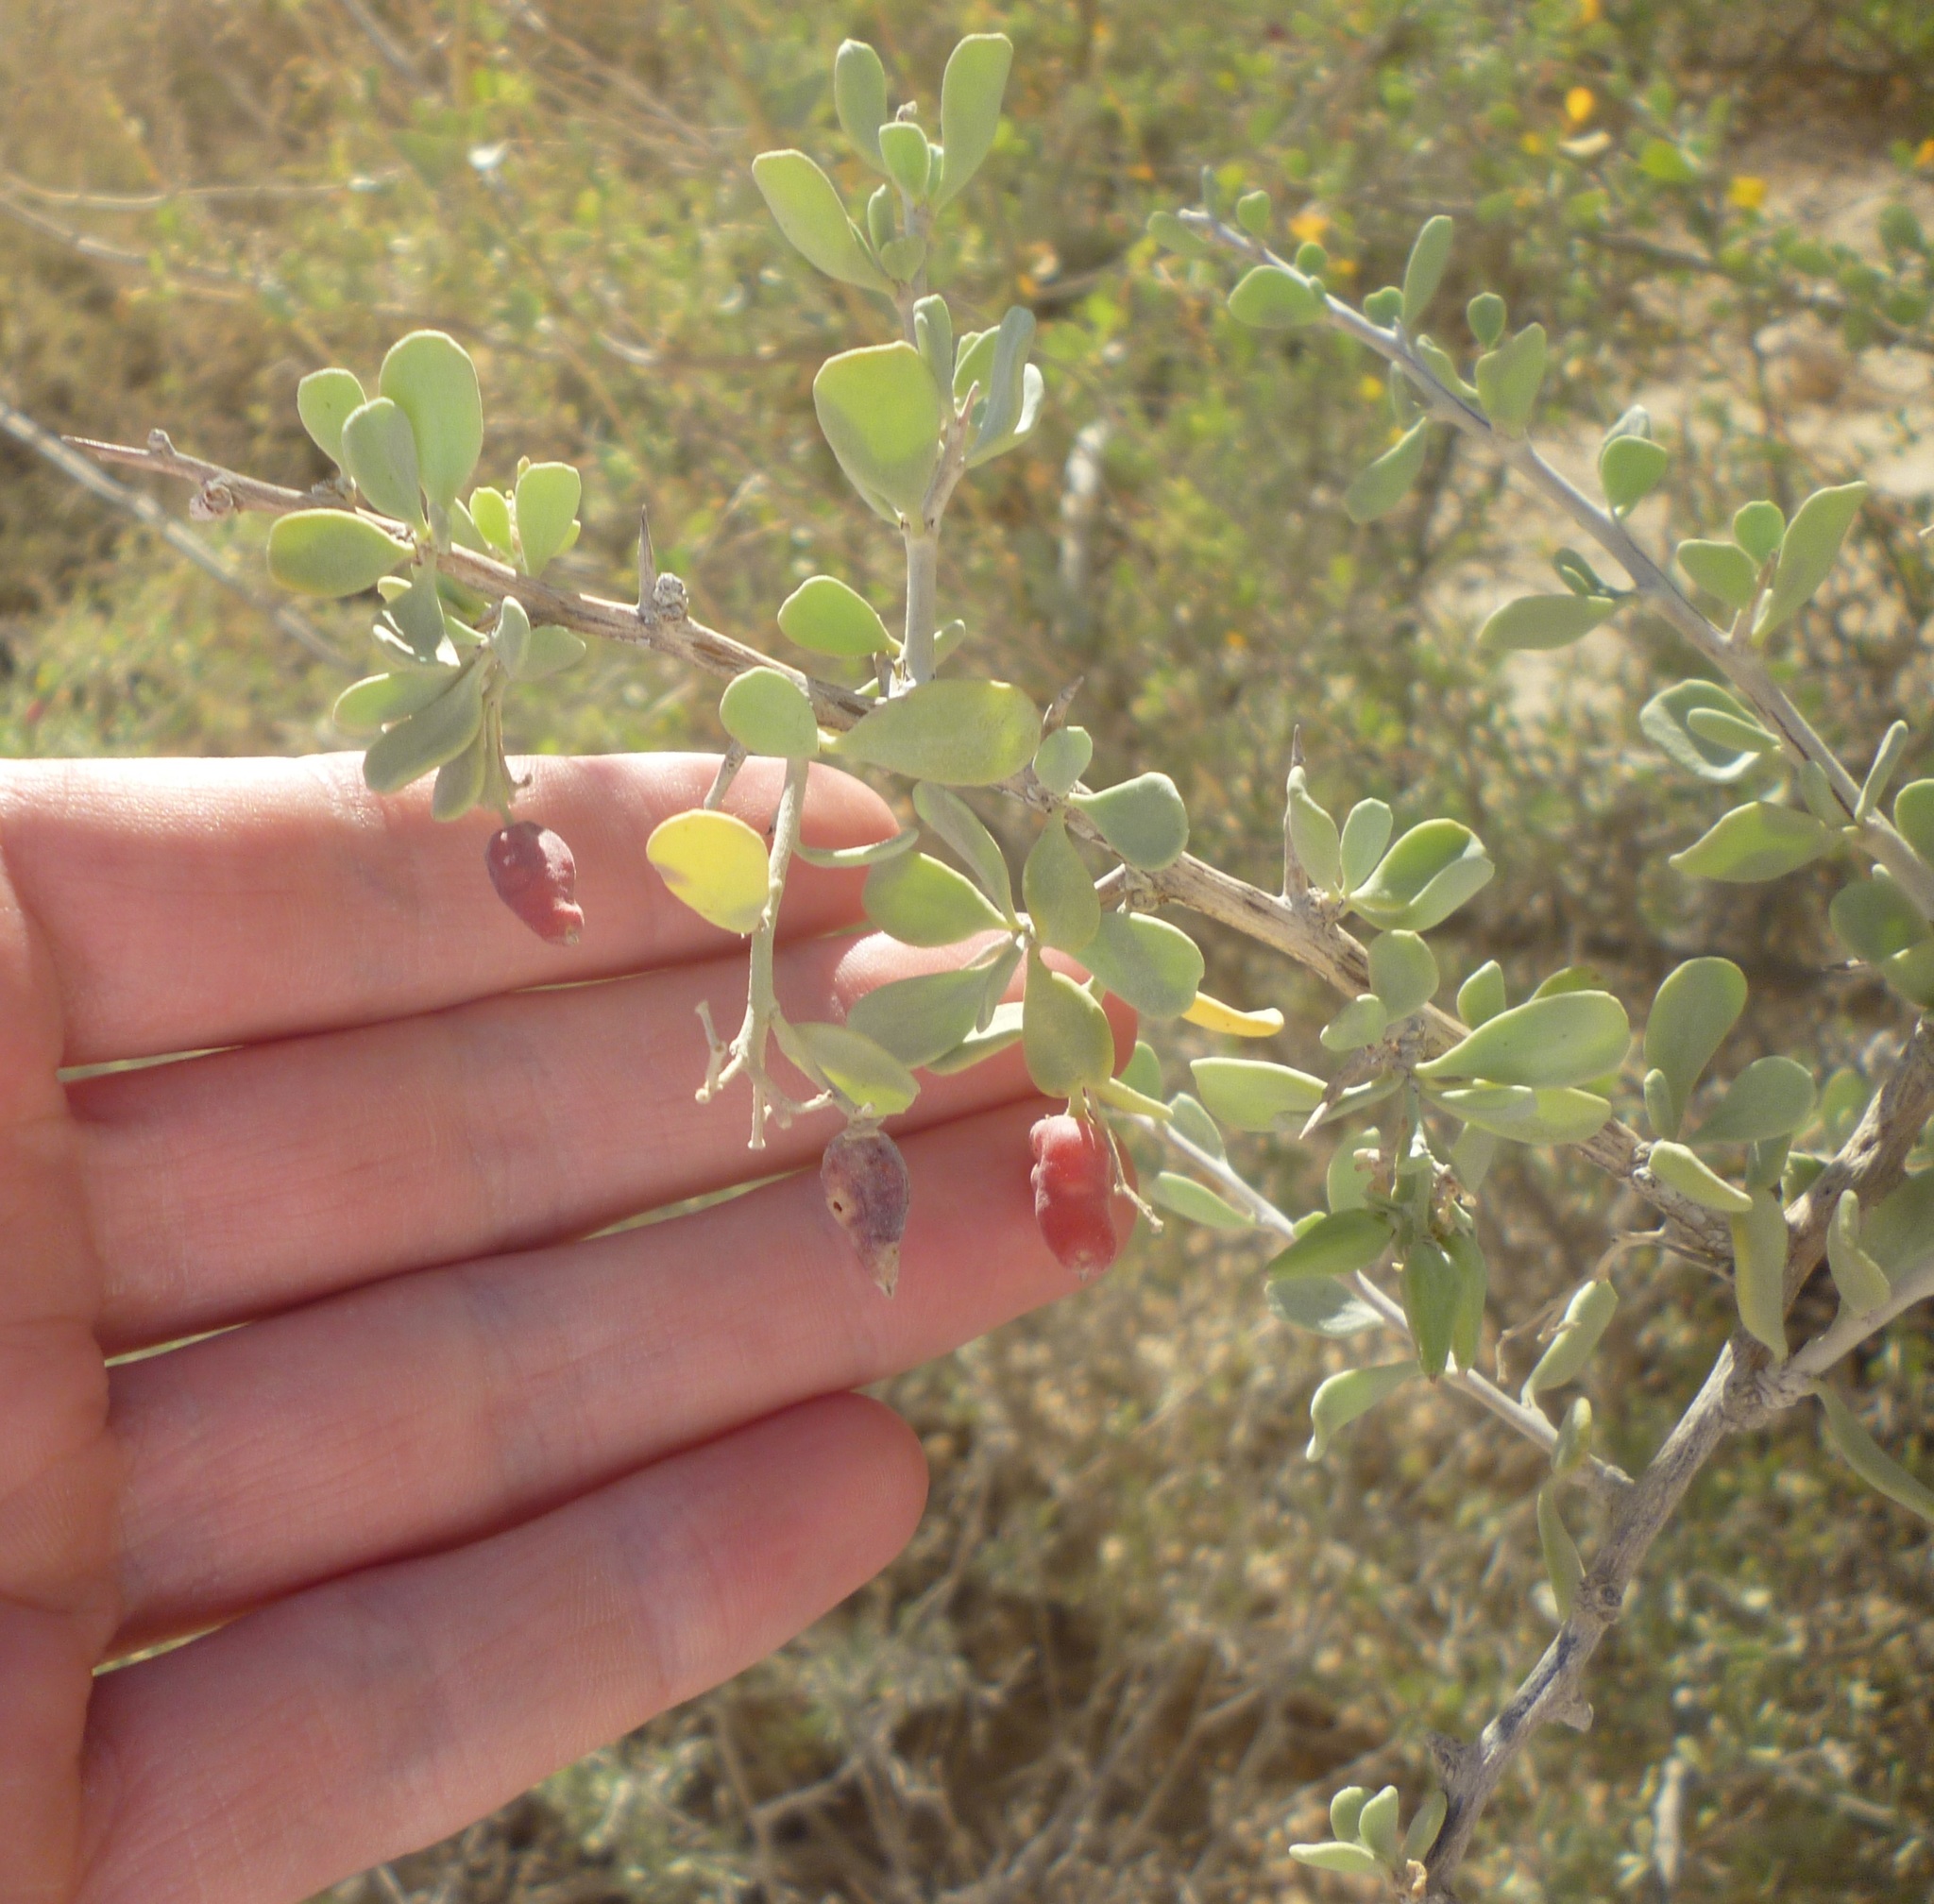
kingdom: Plantae
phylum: Tracheophyta
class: Magnoliopsida
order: Sapindales
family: Nitrariaceae
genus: Nitraria
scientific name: Nitraria retusa
